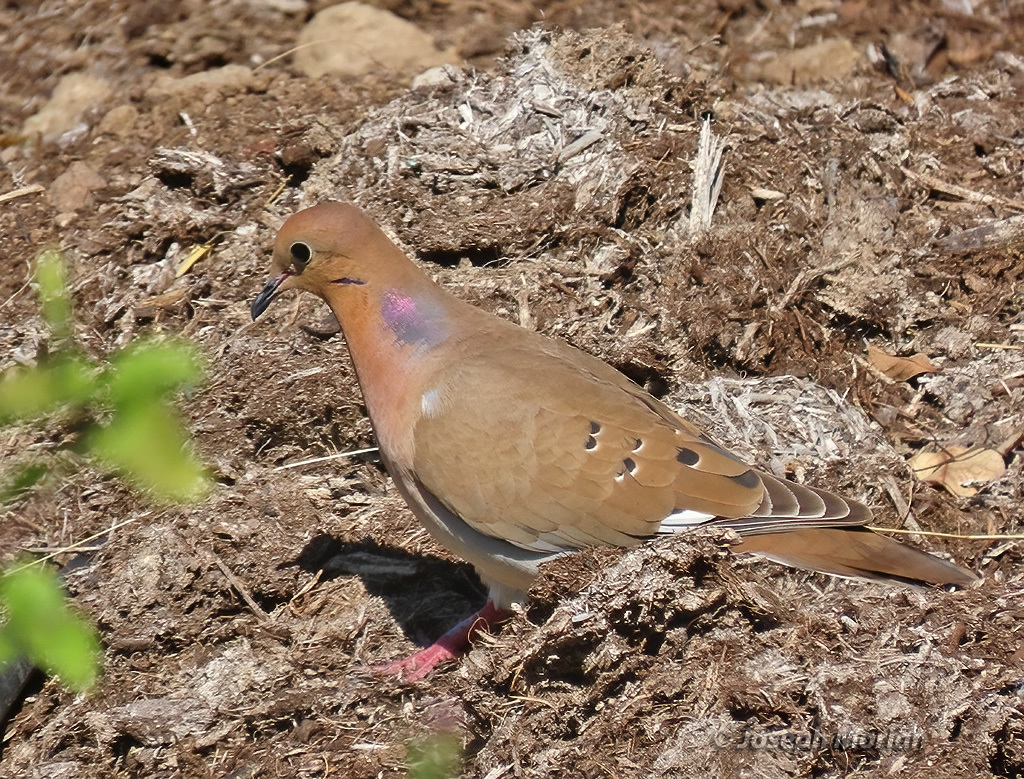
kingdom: Animalia
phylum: Chordata
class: Aves
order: Columbiformes
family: Columbidae
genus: Zenaida
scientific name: Zenaida aurita
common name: Zenaida dove
